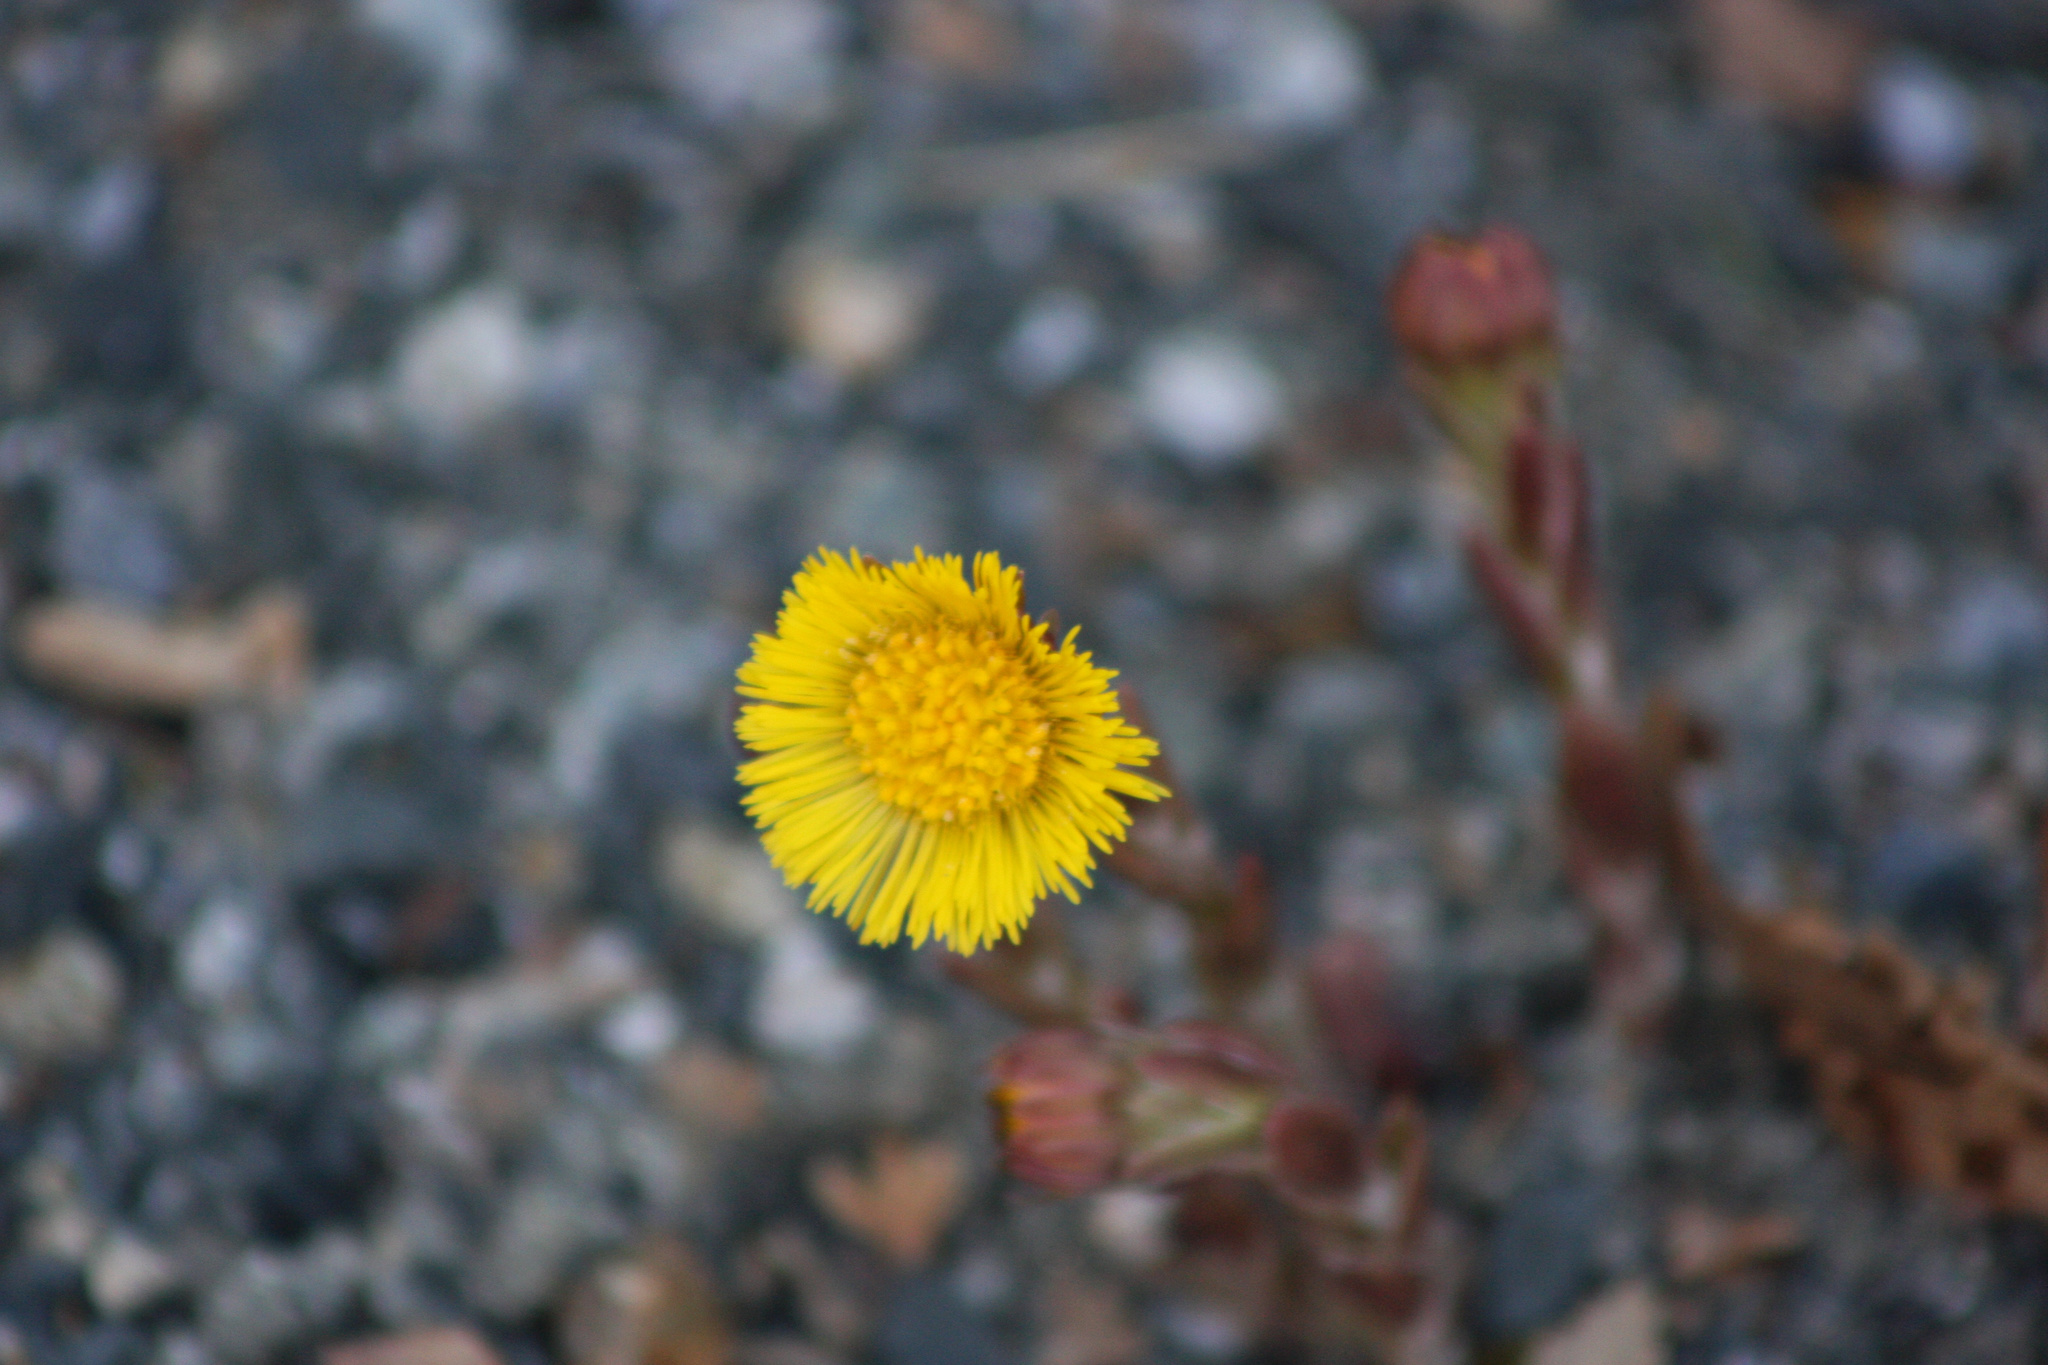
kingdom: Plantae
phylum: Tracheophyta
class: Magnoliopsida
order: Asterales
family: Asteraceae
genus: Tussilago
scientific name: Tussilago farfara
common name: Coltsfoot
